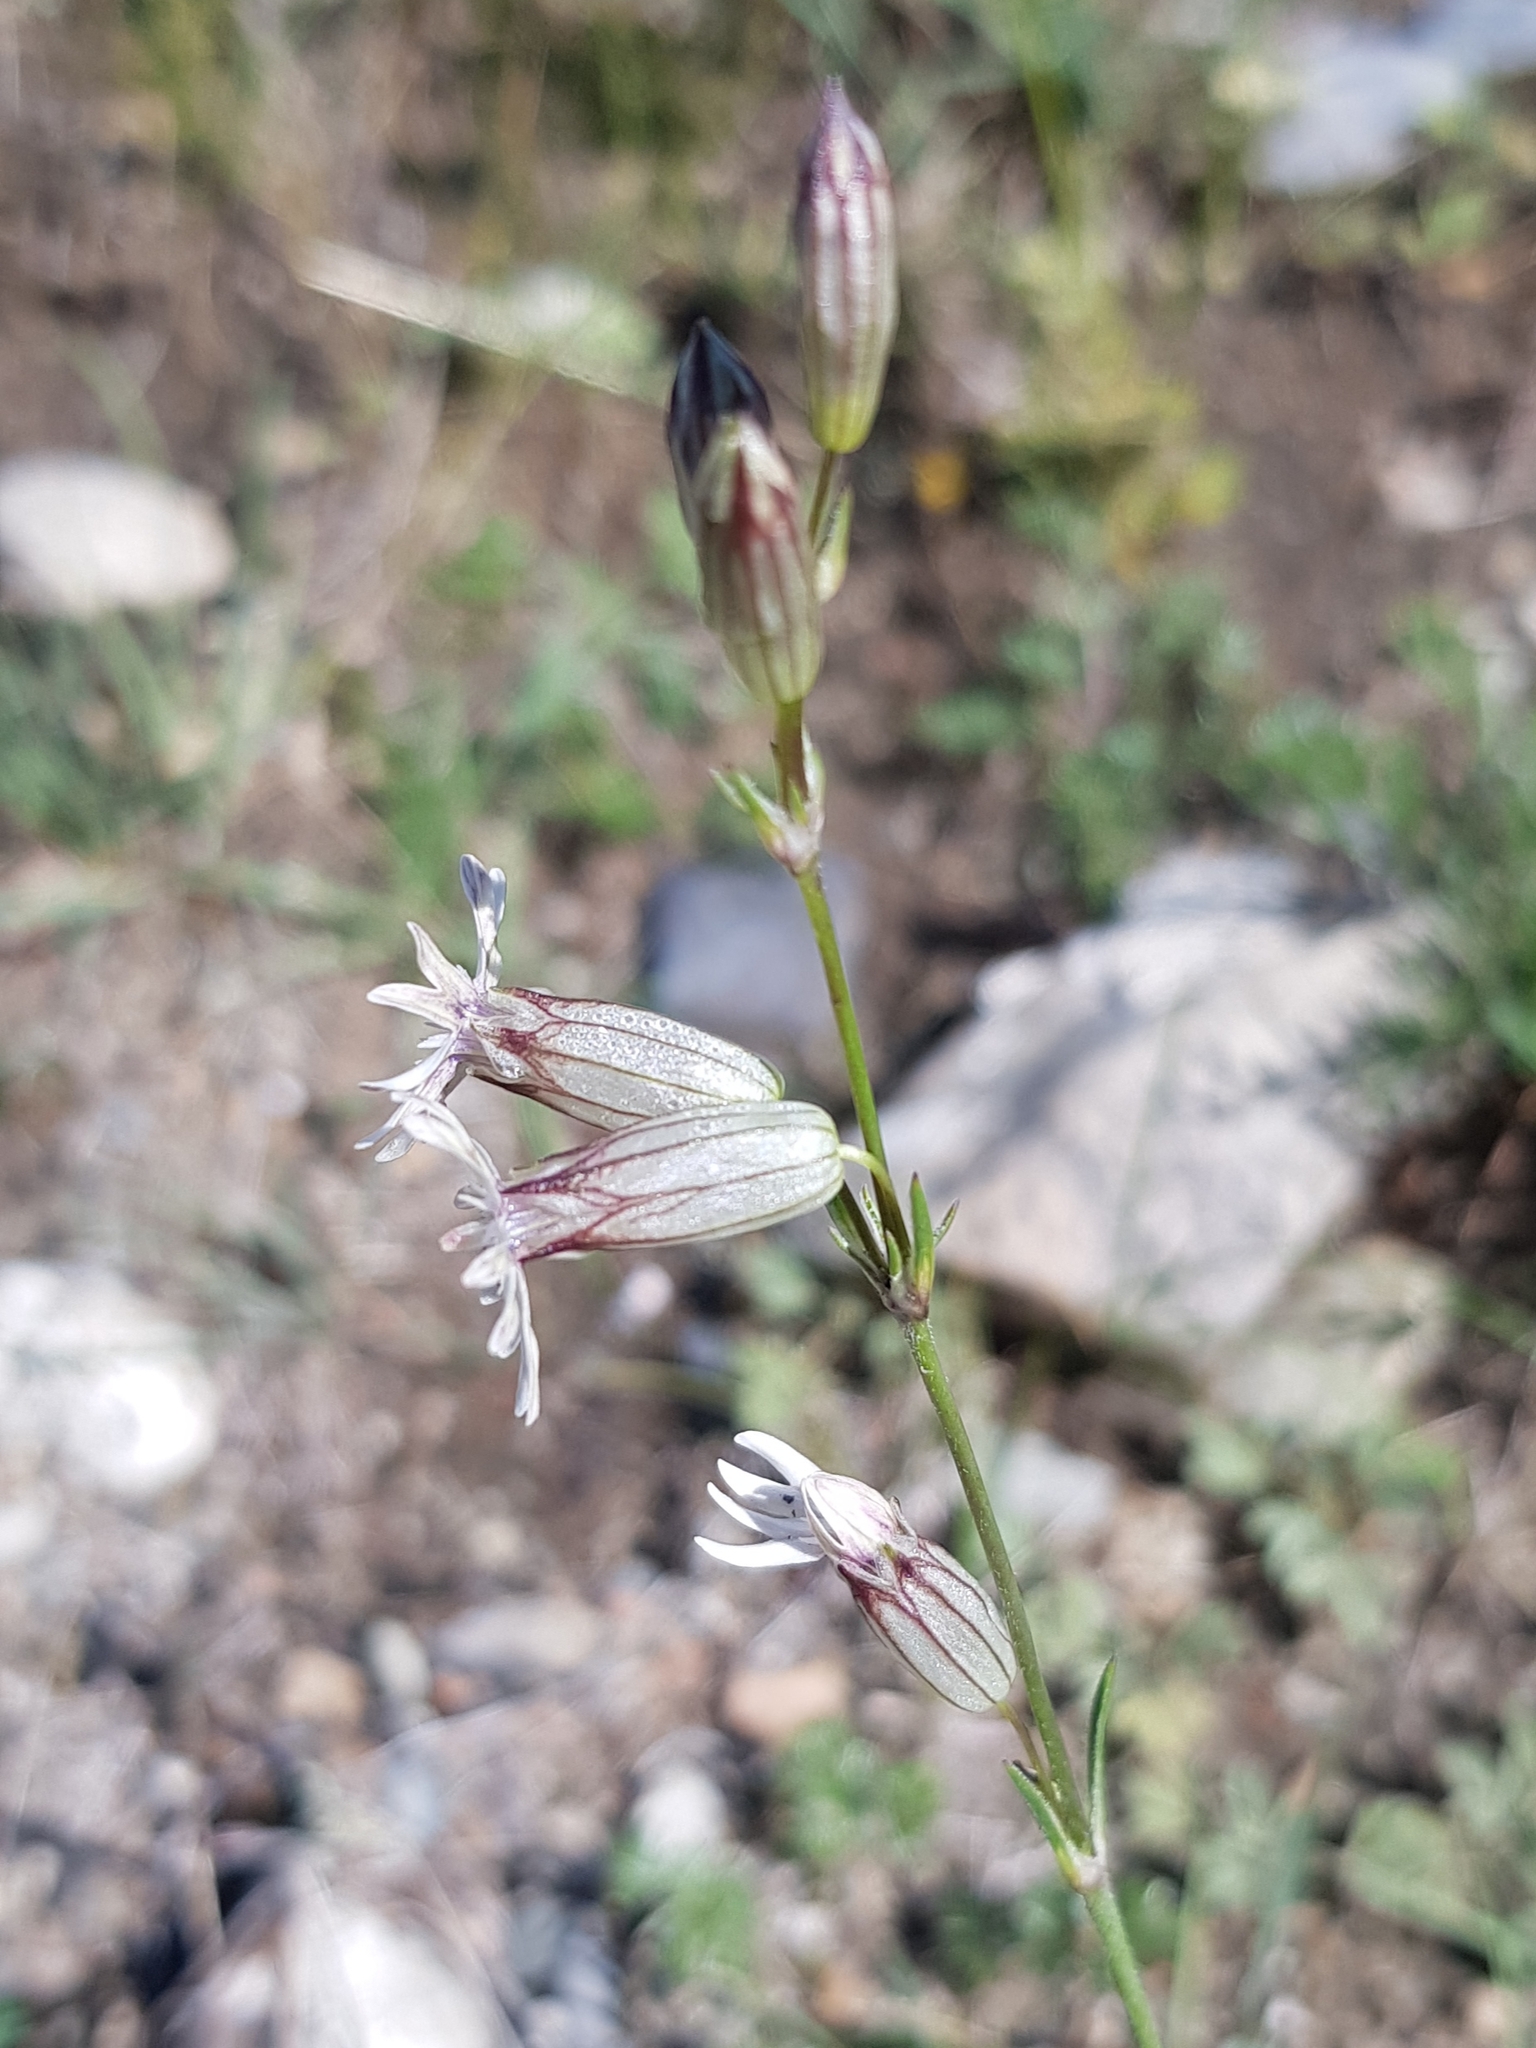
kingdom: Plantae
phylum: Tracheophyta
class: Magnoliopsida
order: Caryophyllales
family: Caryophyllaceae
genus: Silene
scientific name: Silene jeniseensis
